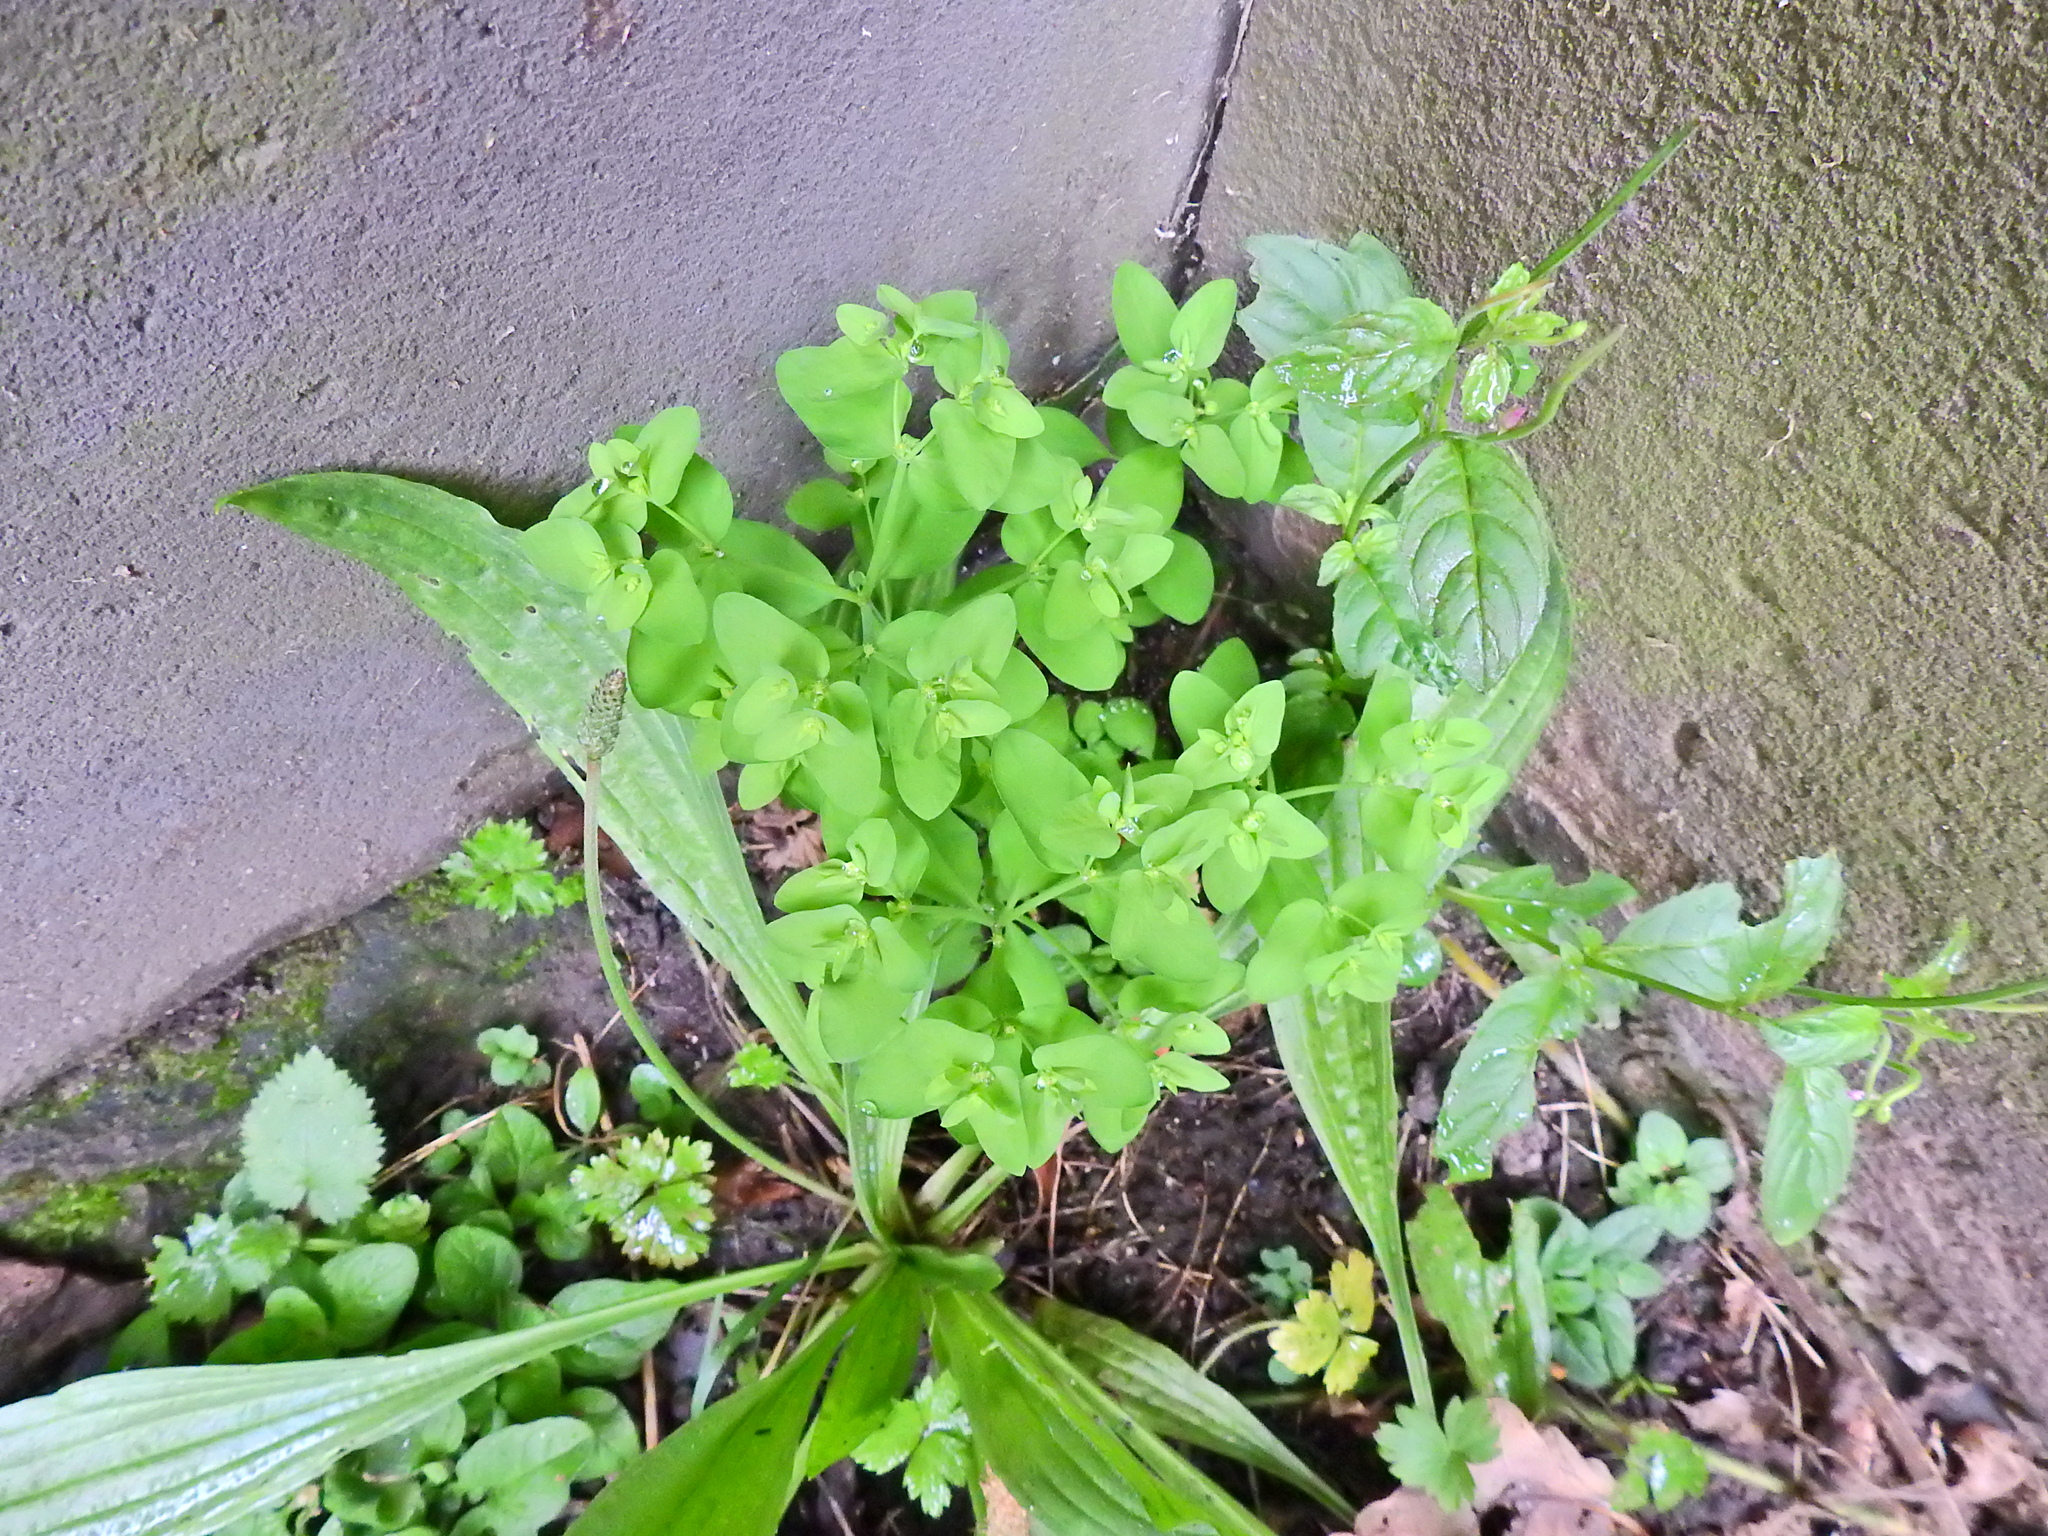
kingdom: Plantae
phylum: Tracheophyta
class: Magnoliopsida
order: Malpighiales
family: Euphorbiaceae
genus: Euphorbia
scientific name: Euphorbia peplus
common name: Petty spurge
